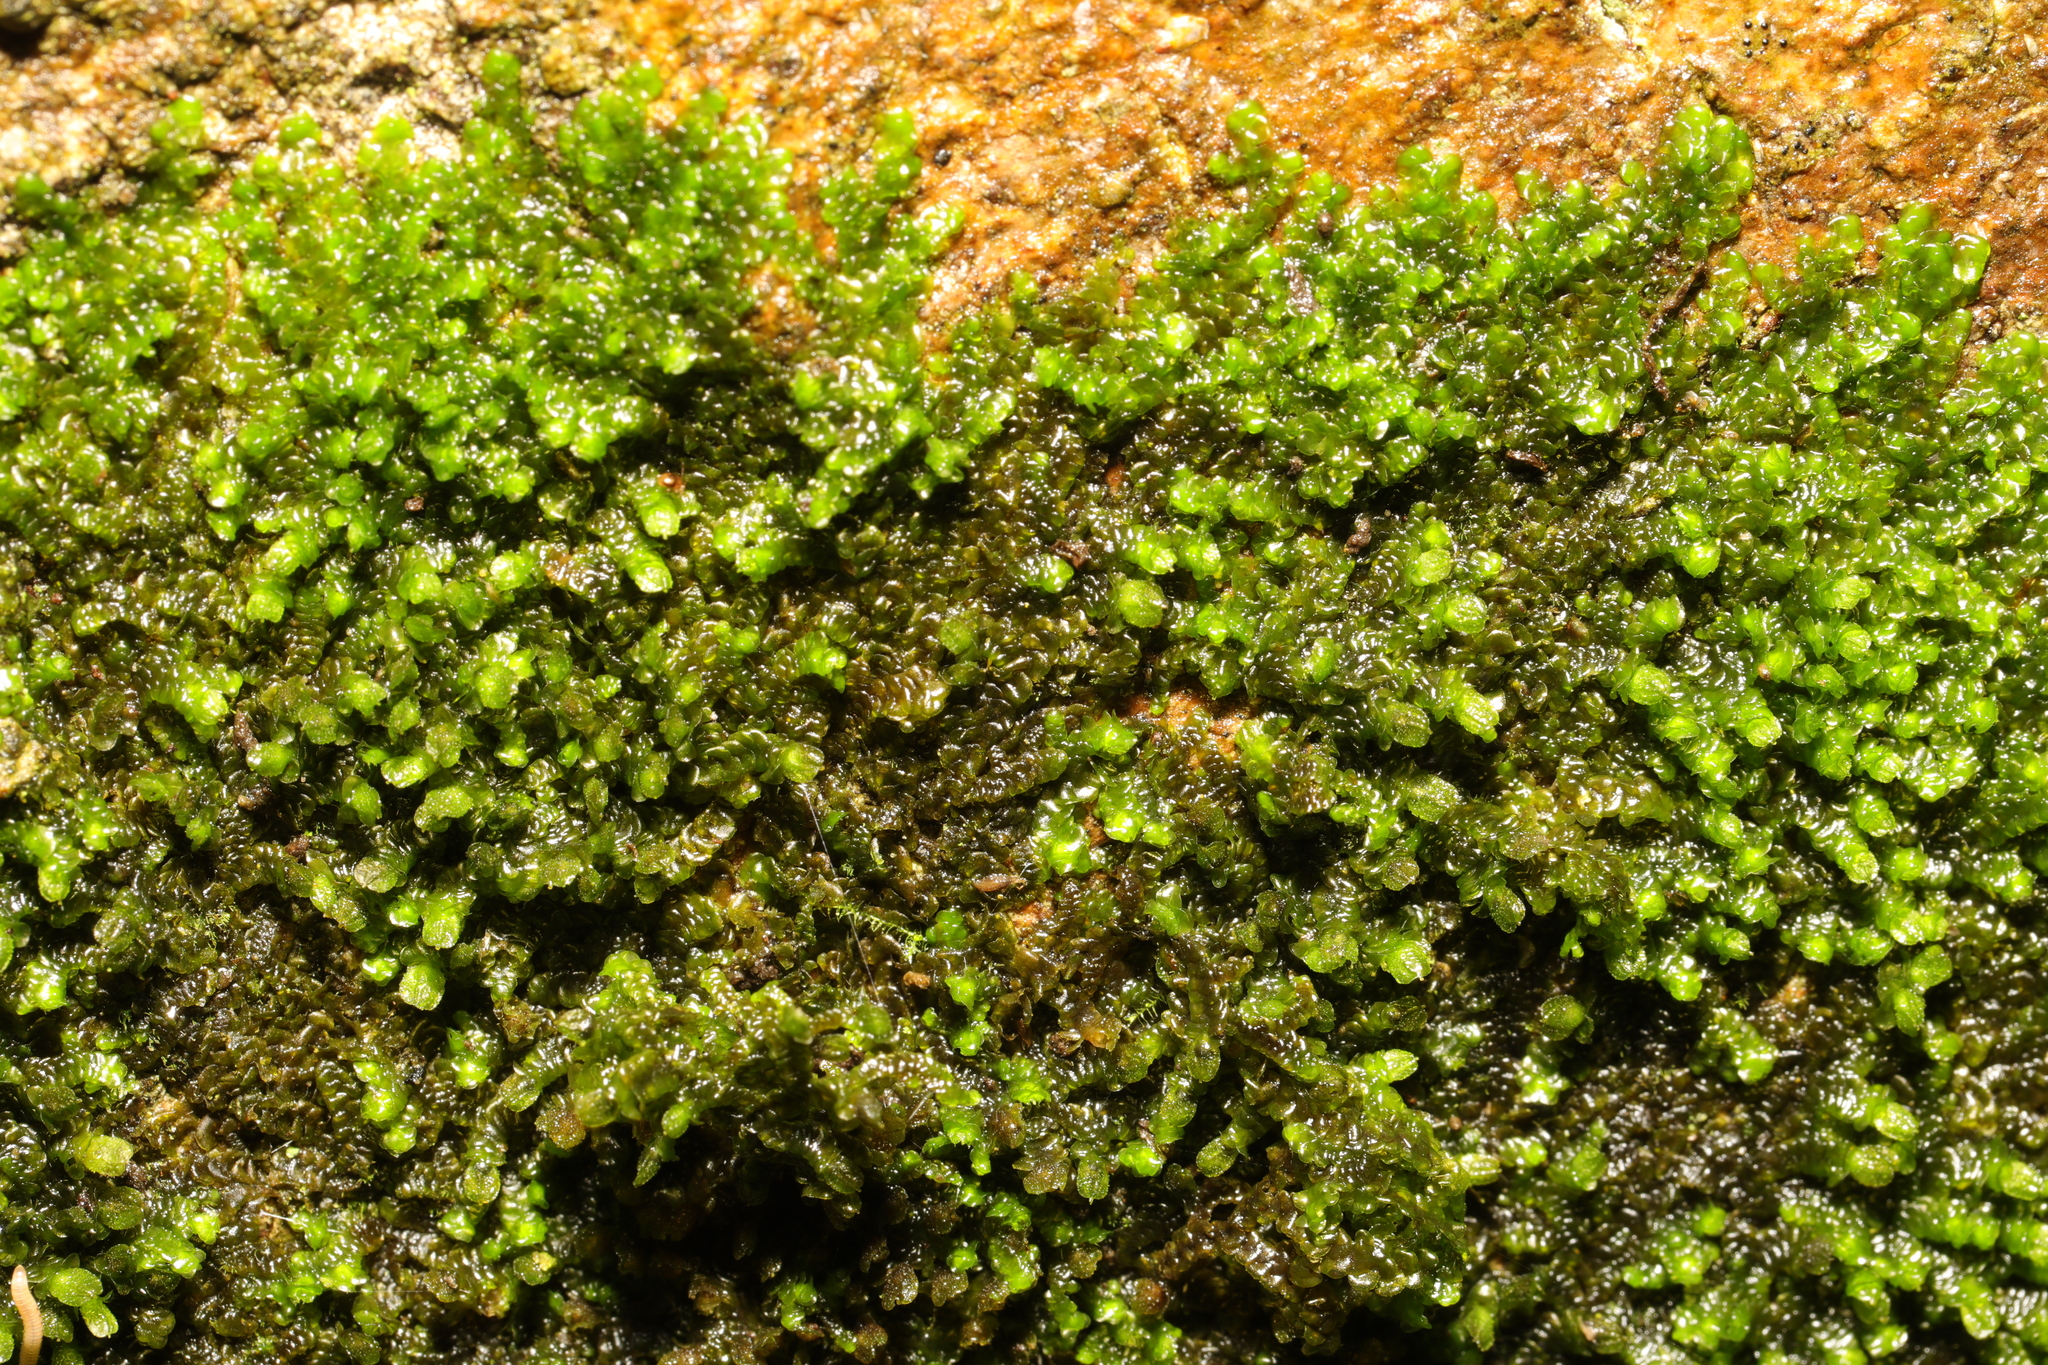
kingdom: Plantae
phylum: Marchantiophyta
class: Jungermanniopsida
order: Porellales
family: Frullaniaceae
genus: Frullania
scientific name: Frullania dilatata
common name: Dilated scalewort
